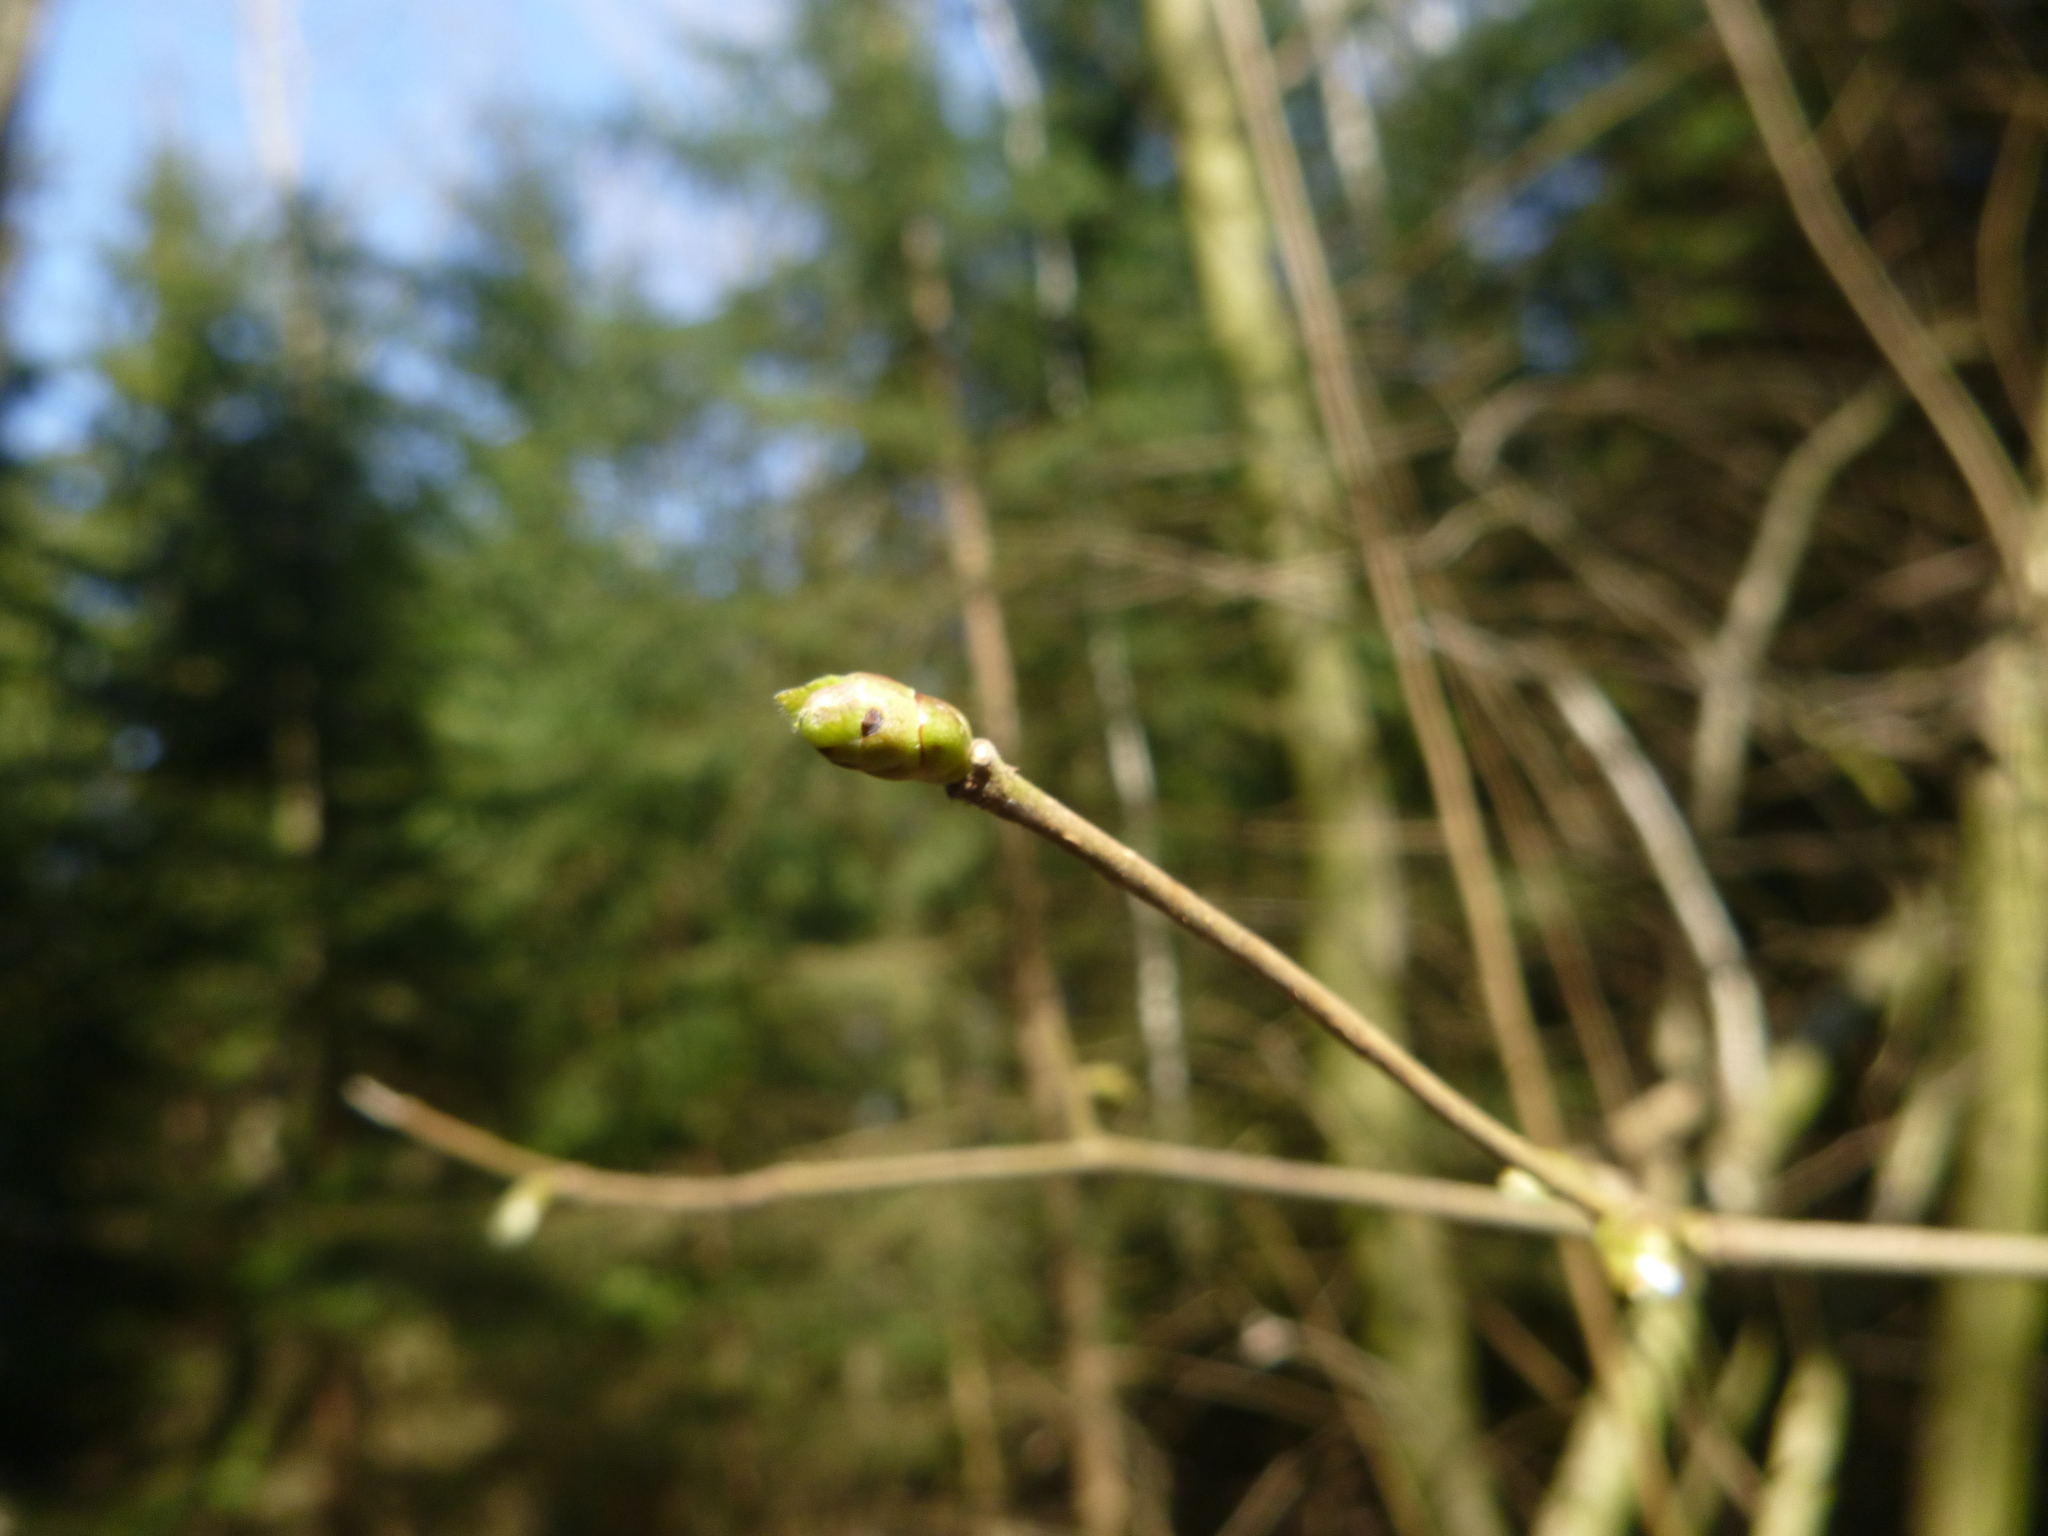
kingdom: Plantae
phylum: Tracheophyta
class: Magnoliopsida
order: Fagales
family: Betulaceae
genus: Corylus
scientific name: Corylus avellana
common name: European hazel
